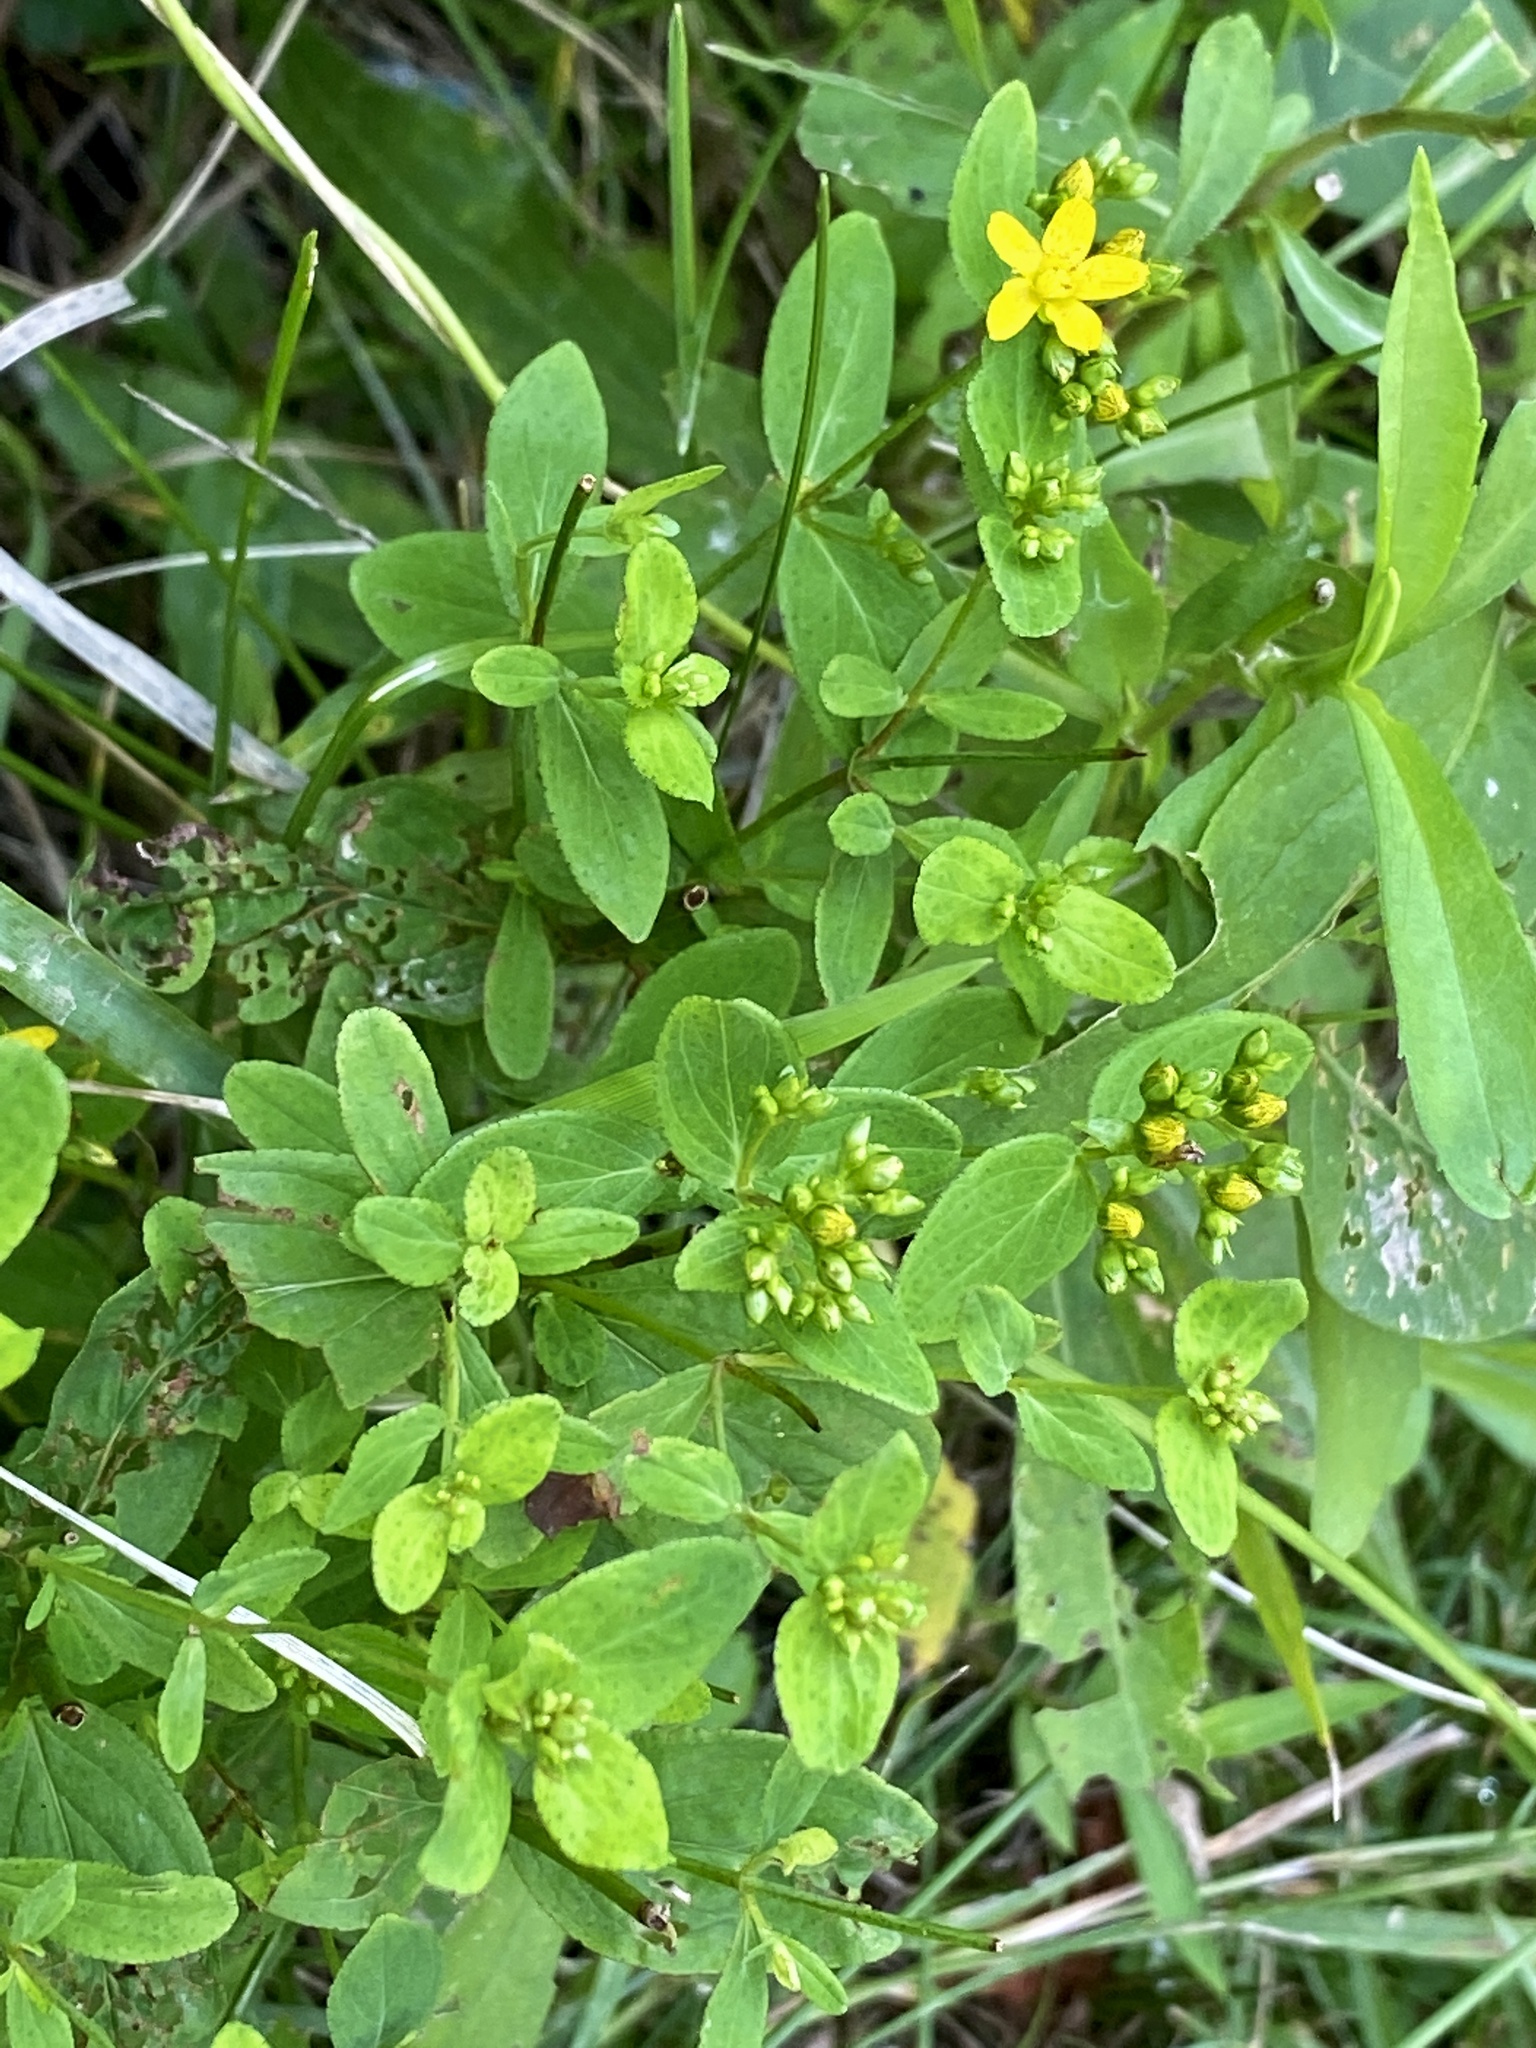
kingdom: Plantae
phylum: Tracheophyta
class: Magnoliopsida
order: Malpighiales
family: Hypericaceae
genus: Hypericum
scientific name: Hypericum punctatum
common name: Spotted st. john's-wort
